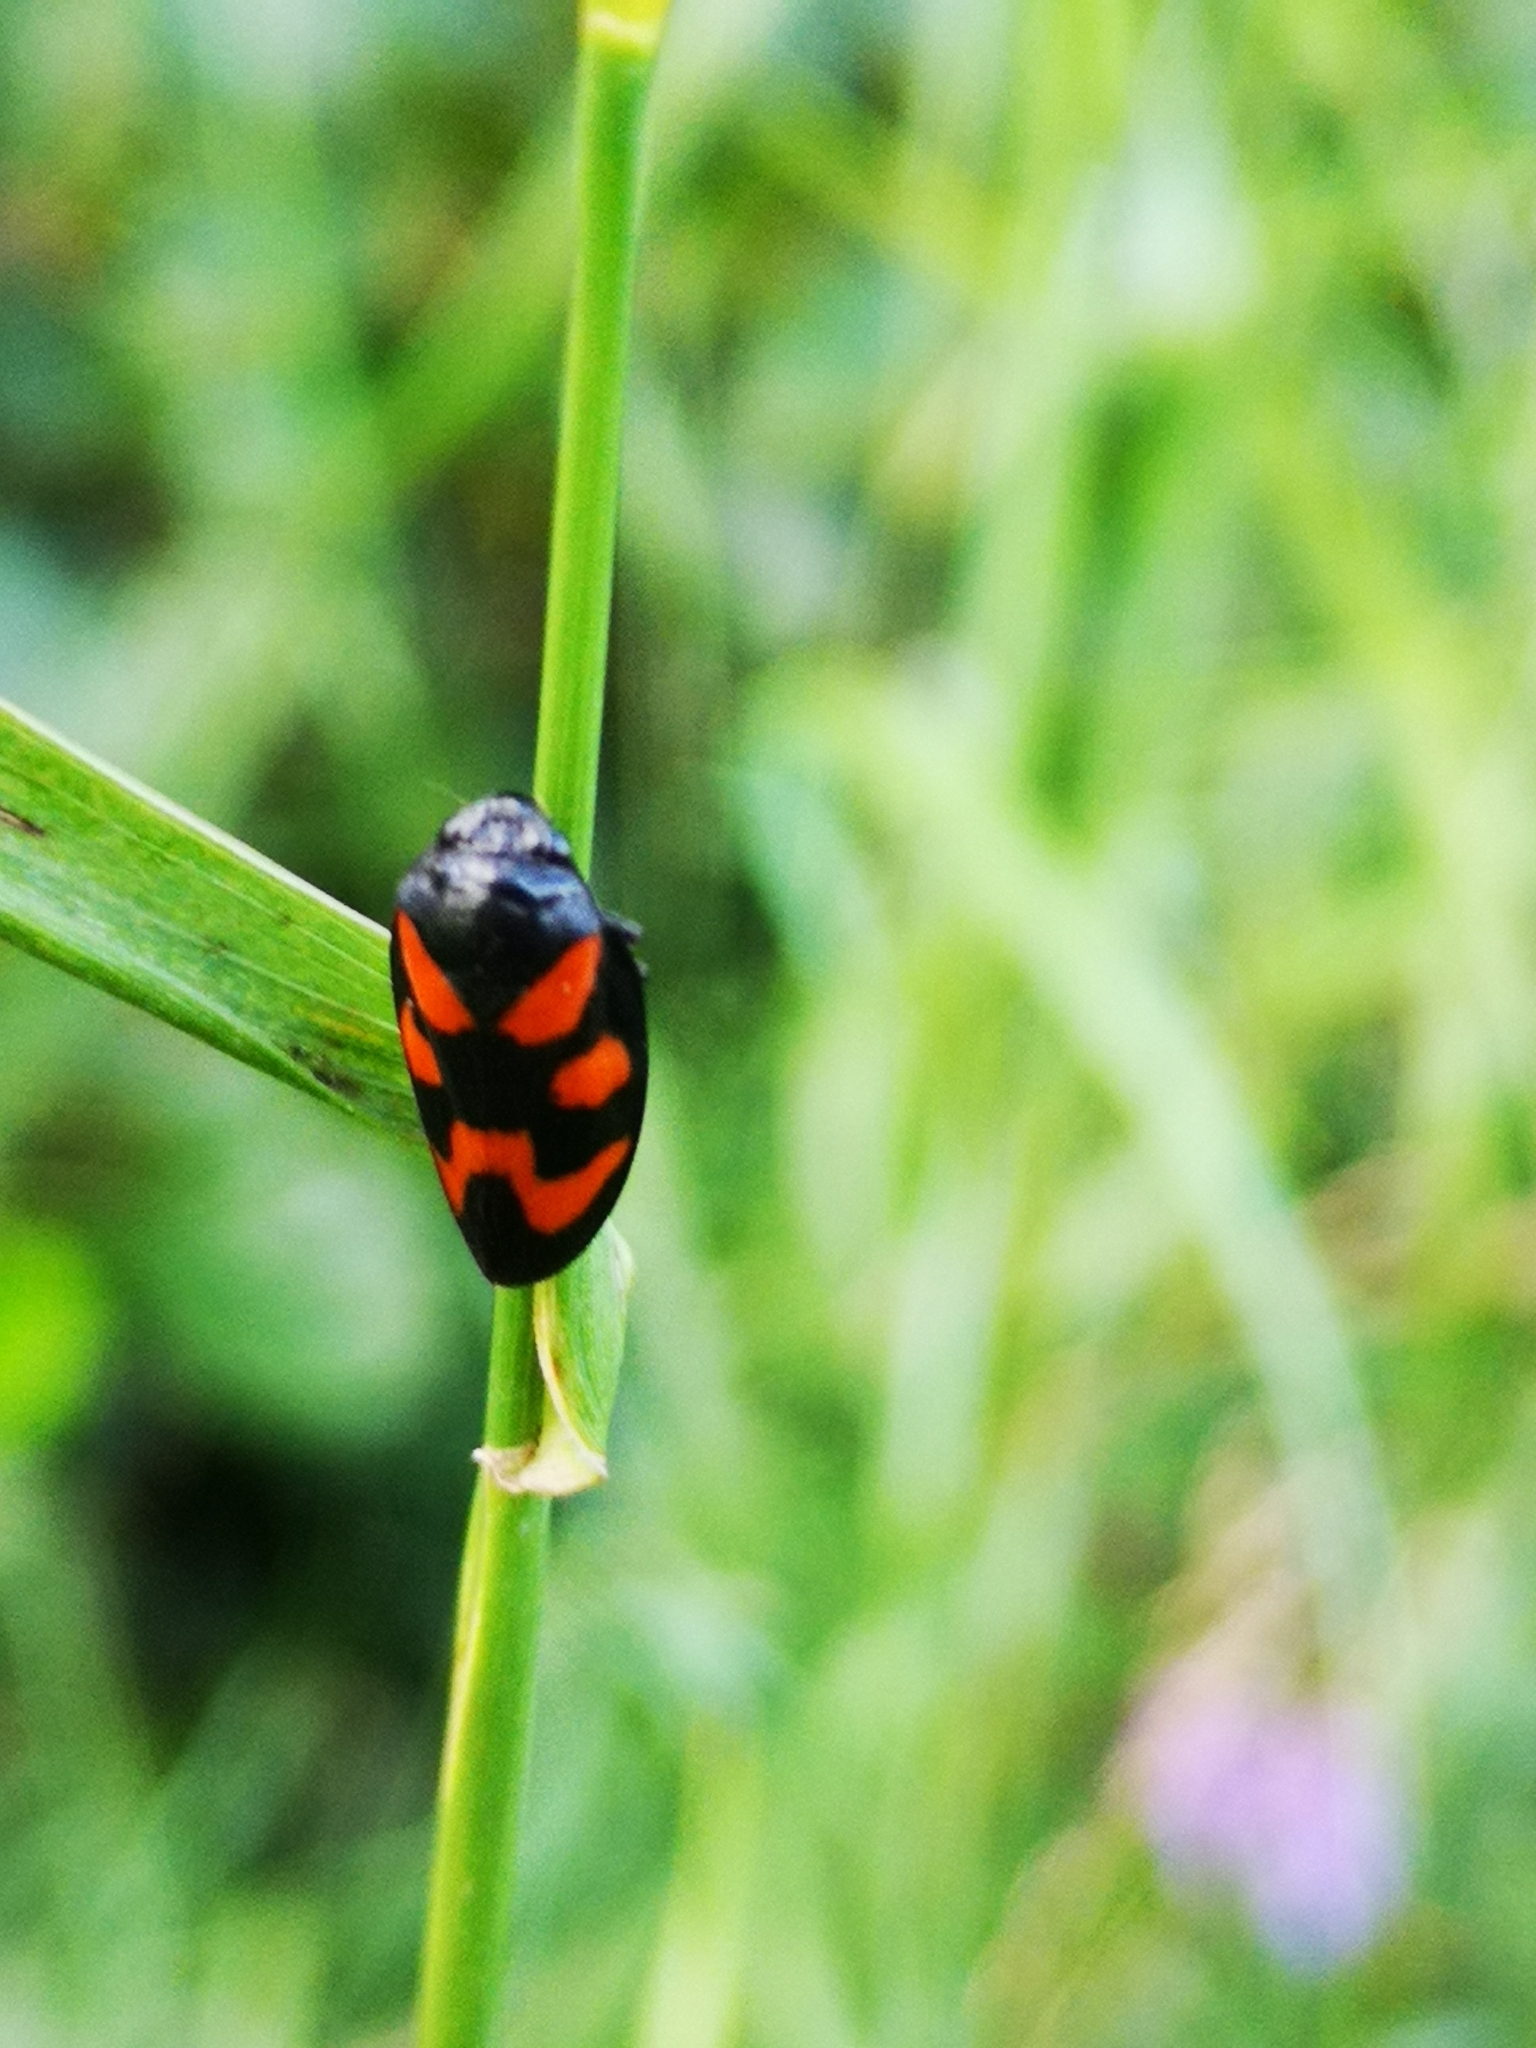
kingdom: Animalia
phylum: Arthropoda
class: Insecta
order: Hemiptera
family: Cercopidae
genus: Cercopis
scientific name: Cercopis vulnerata
